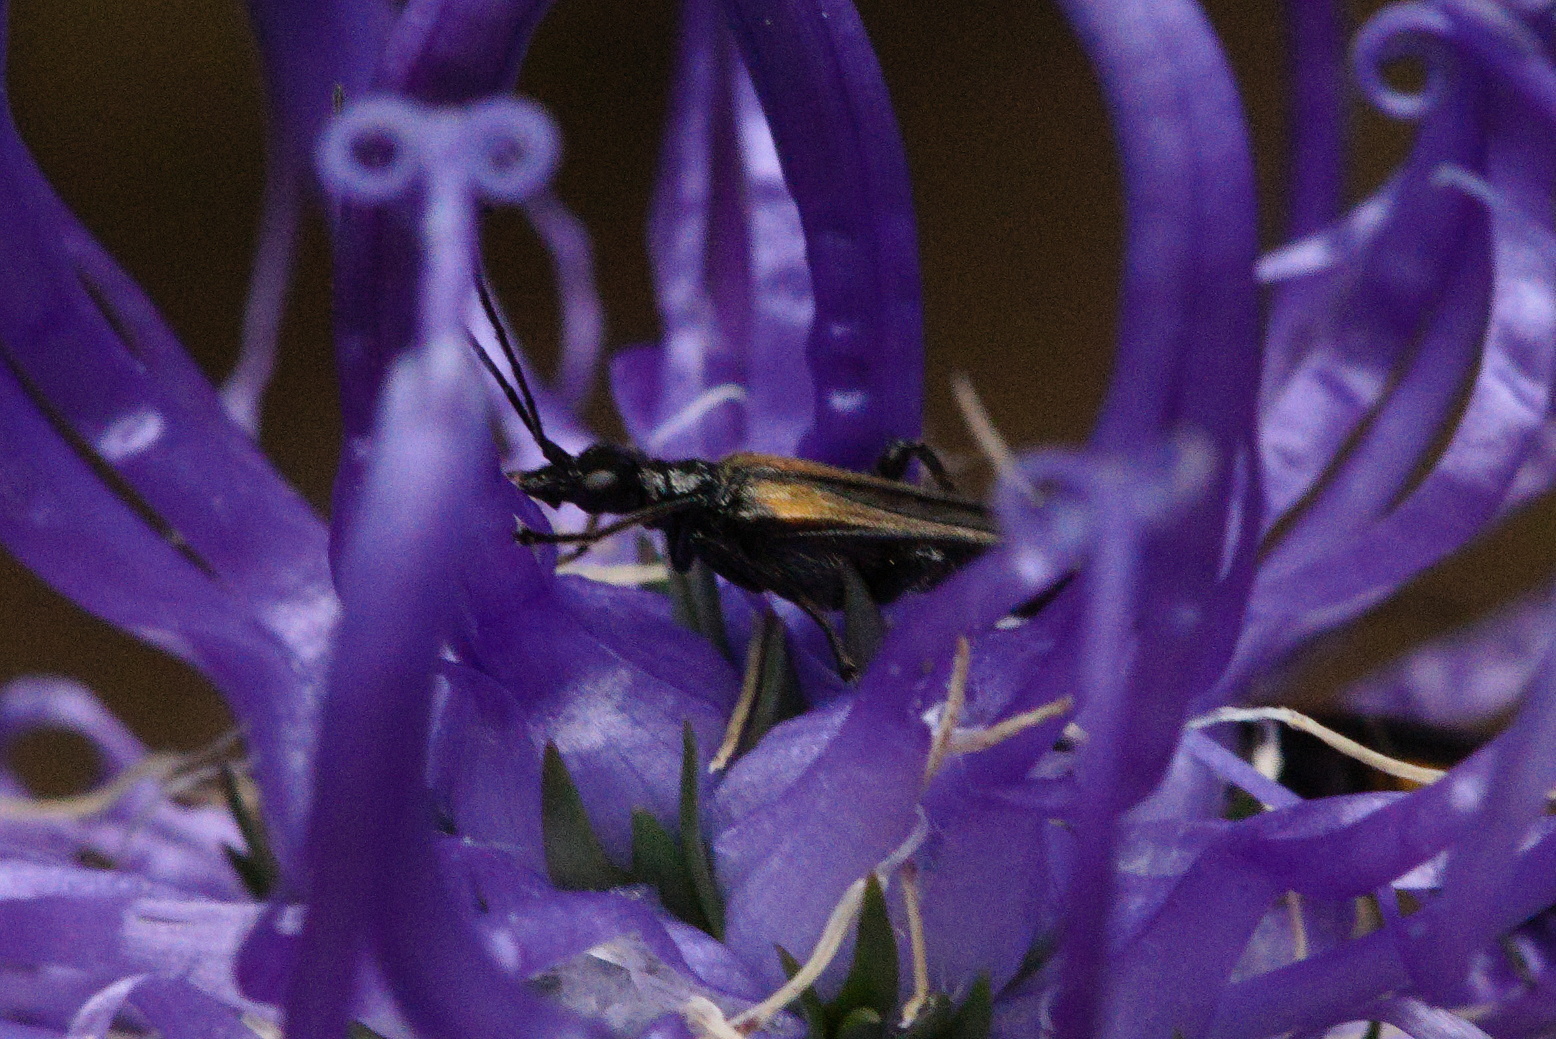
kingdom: Animalia
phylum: Arthropoda
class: Insecta
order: Coleoptera
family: Oedemeridae
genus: Oedemera
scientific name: Oedemera pthysica
